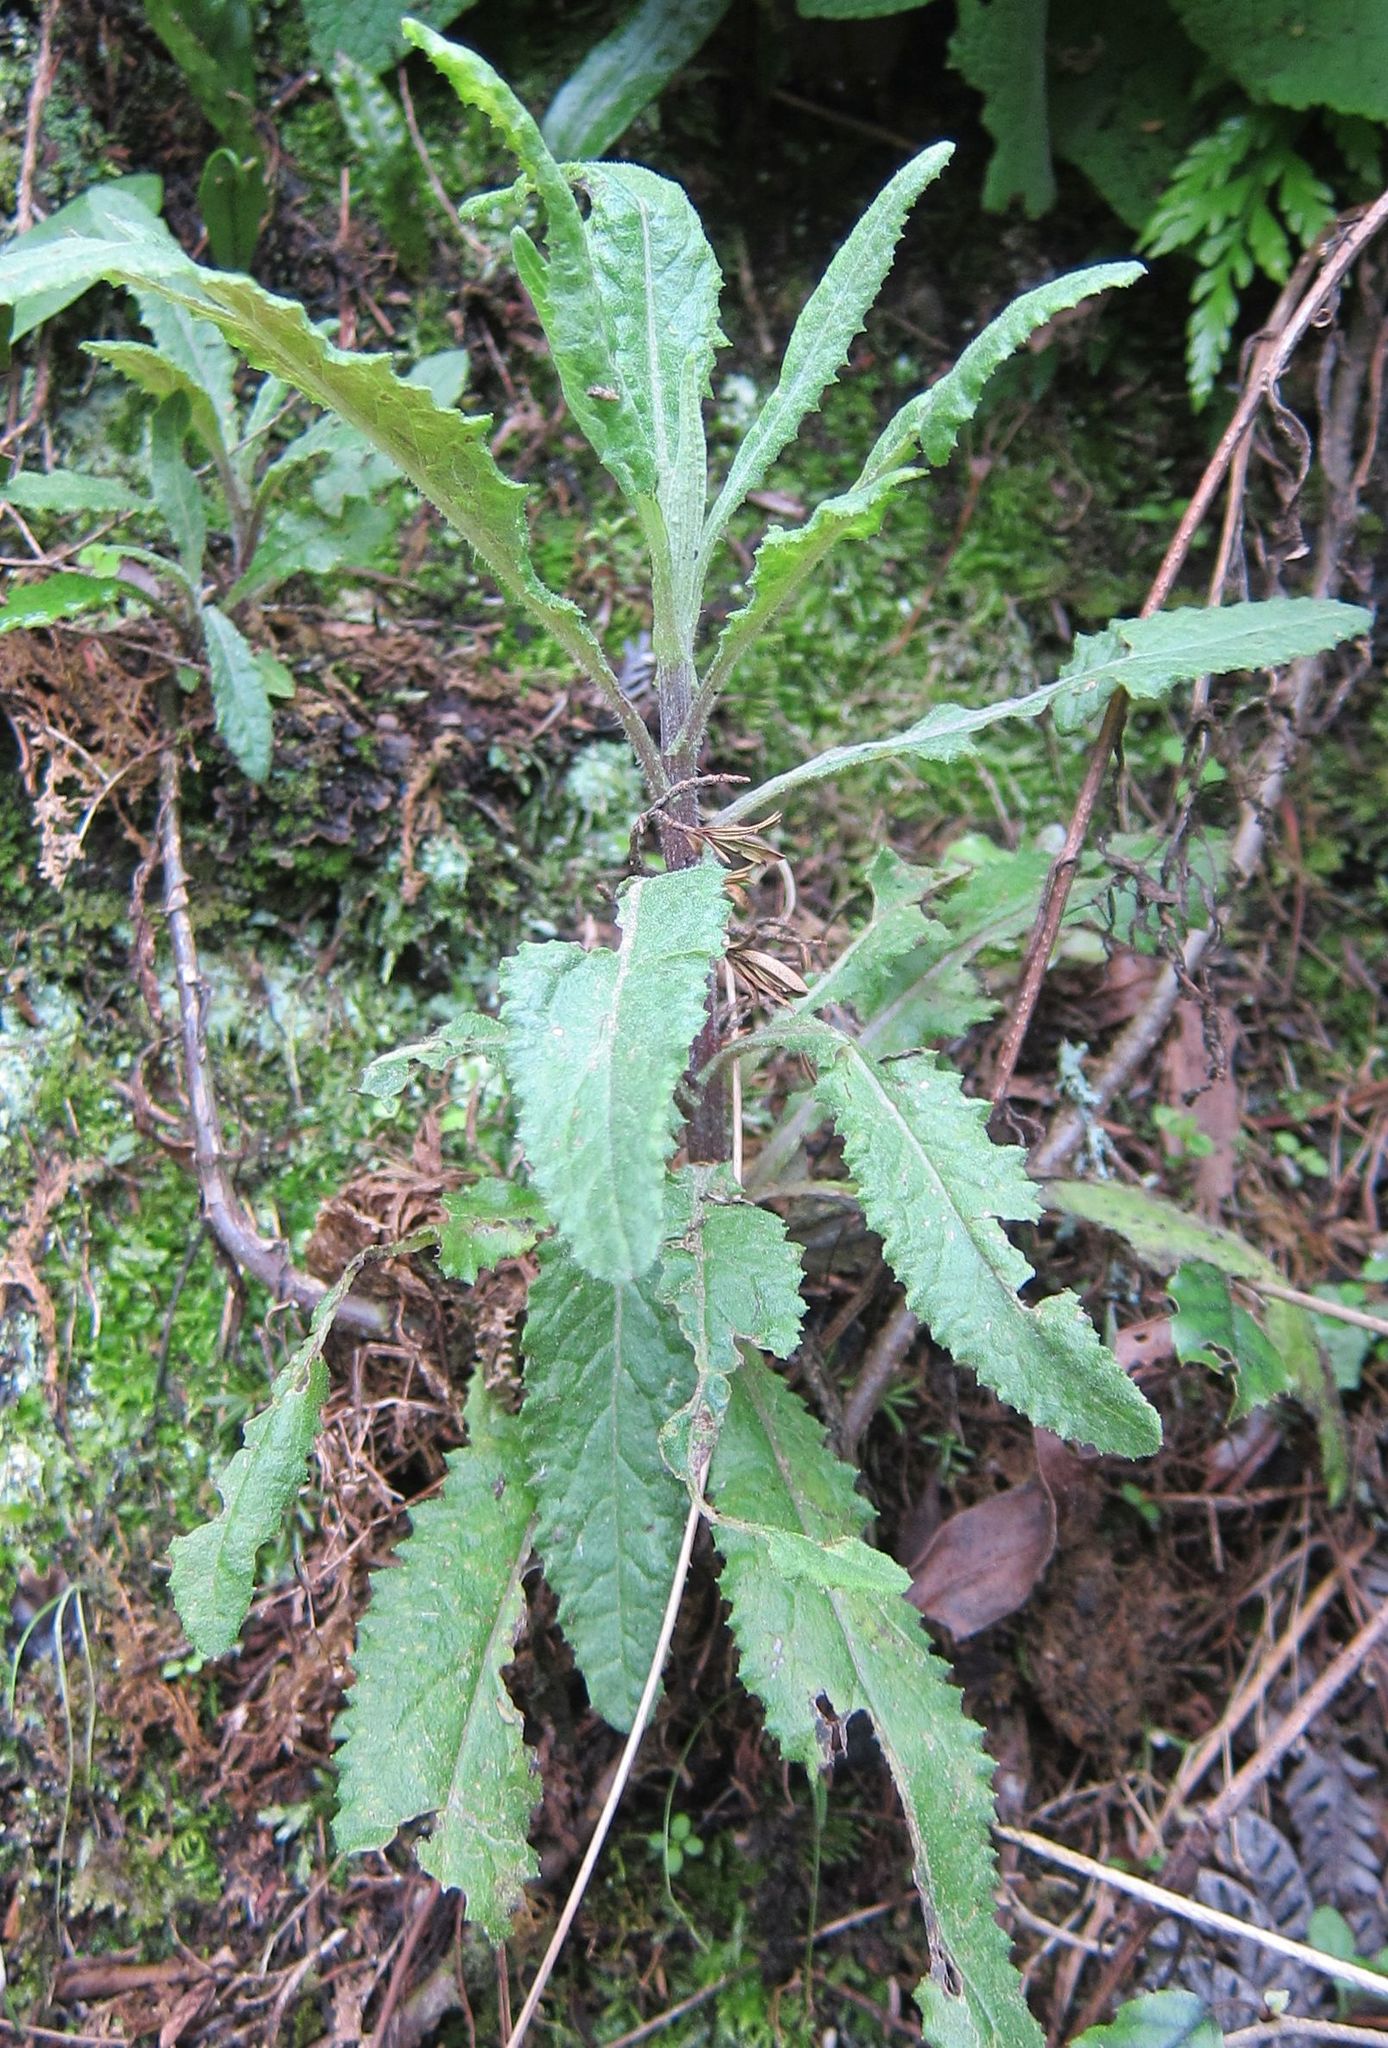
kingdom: Plantae
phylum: Tracheophyta
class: Magnoliopsida
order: Asterales
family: Asteraceae
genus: Senecio
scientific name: Senecio minimus
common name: Toothed fireweed
